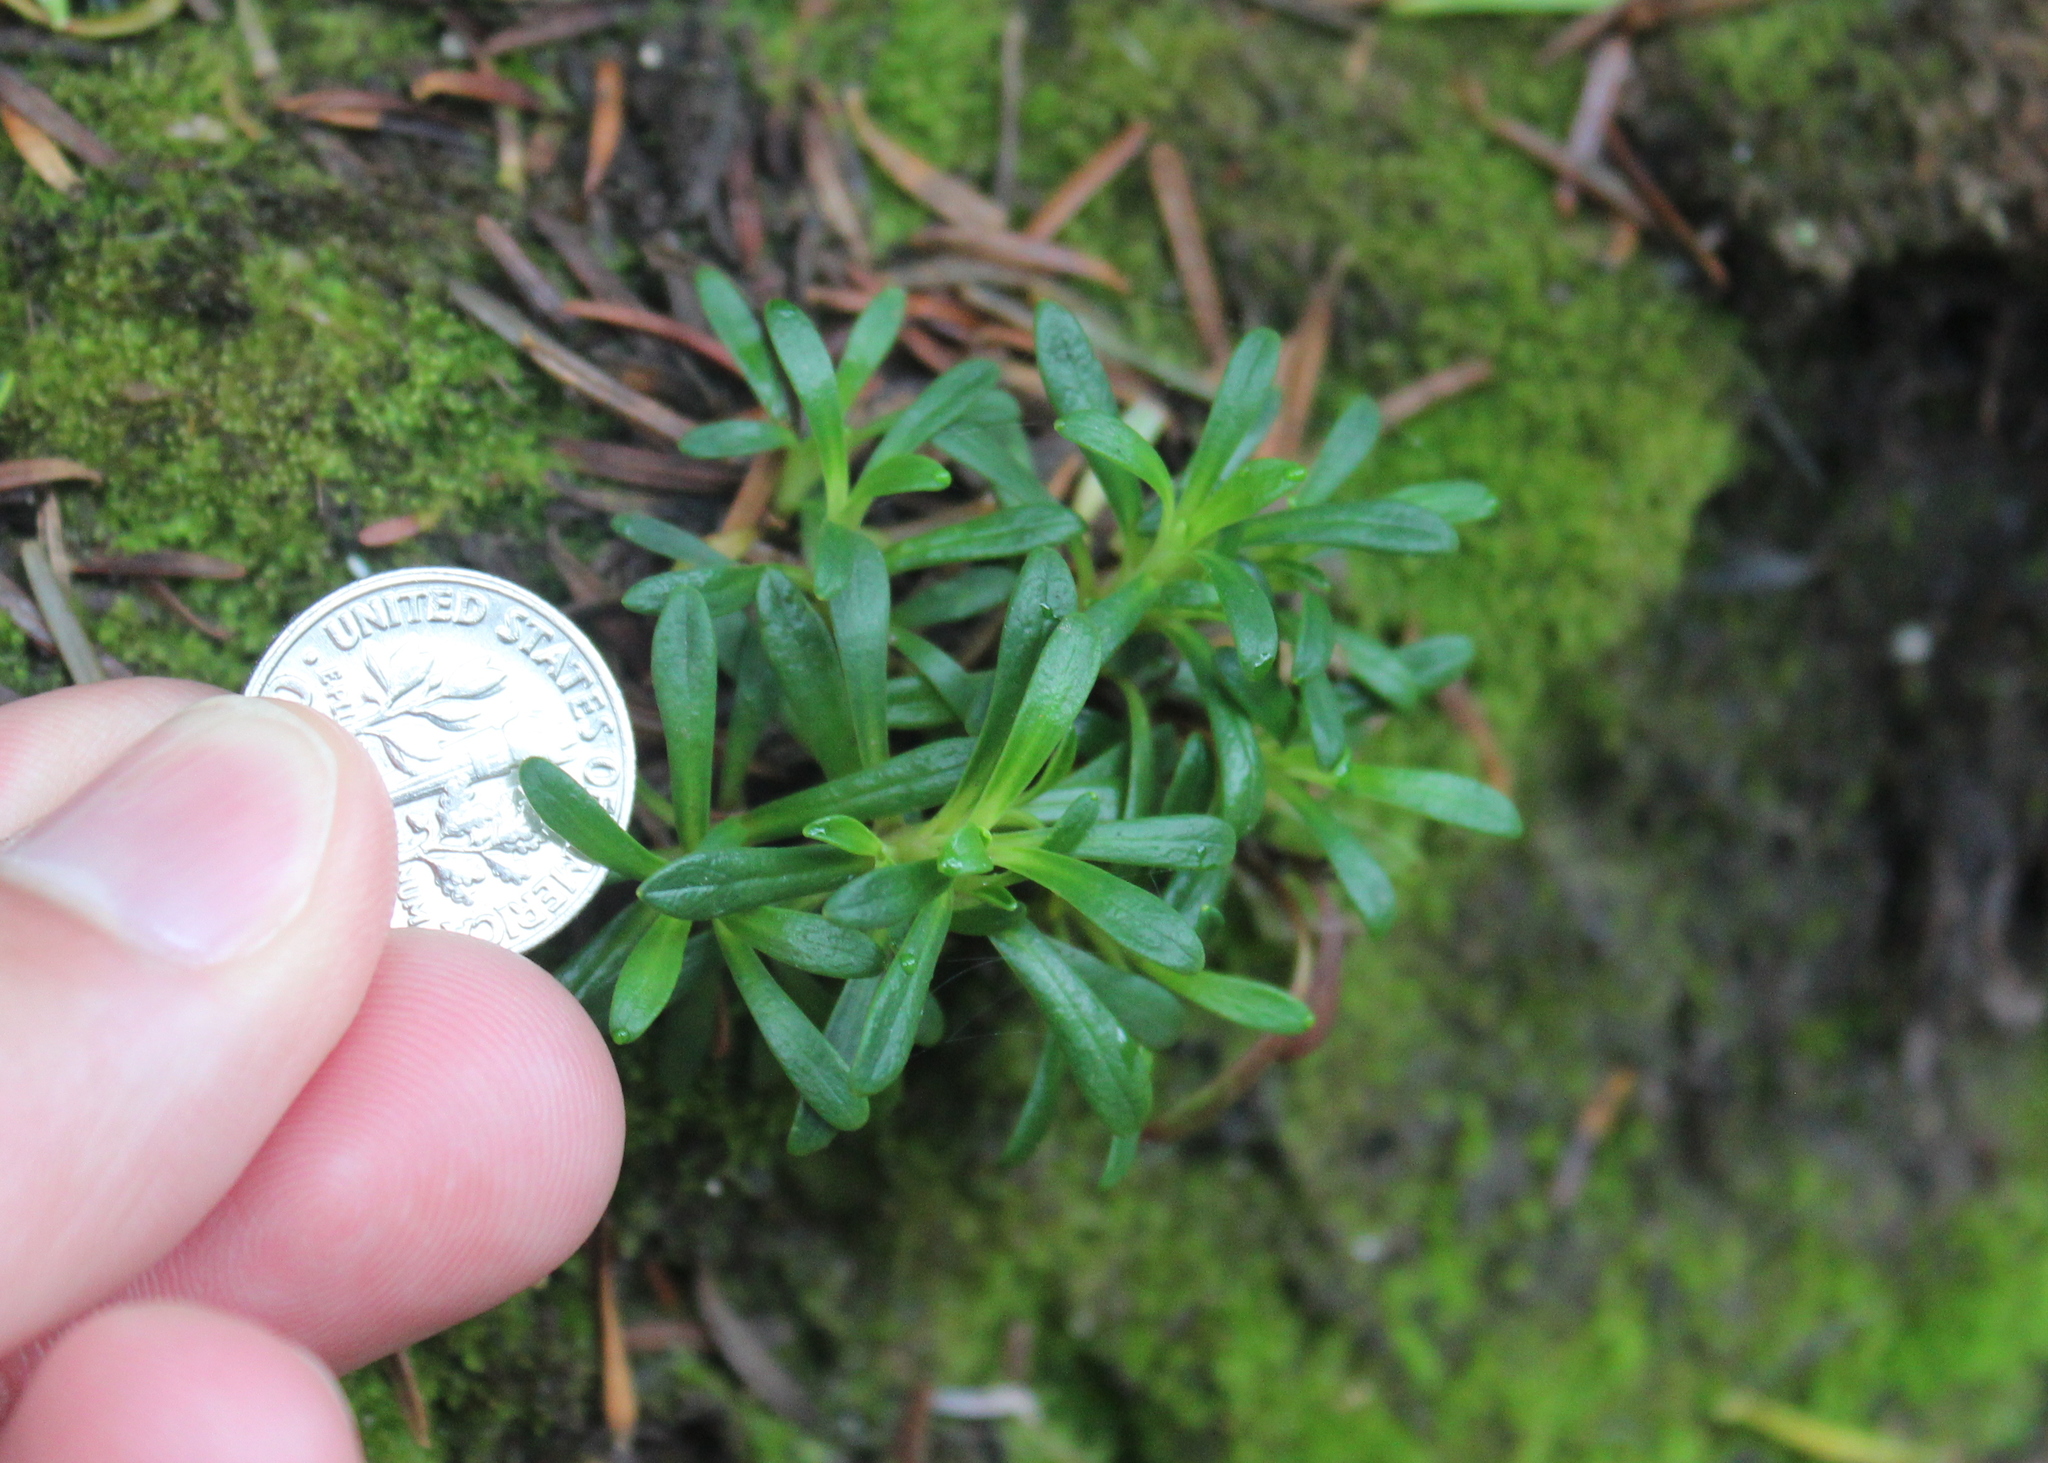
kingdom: Plantae
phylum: Tracheophyta
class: Magnoliopsida
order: Ericales
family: Diapensiaceae
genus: Diapensia
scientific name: Diapensia lapponica
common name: Diapensia
